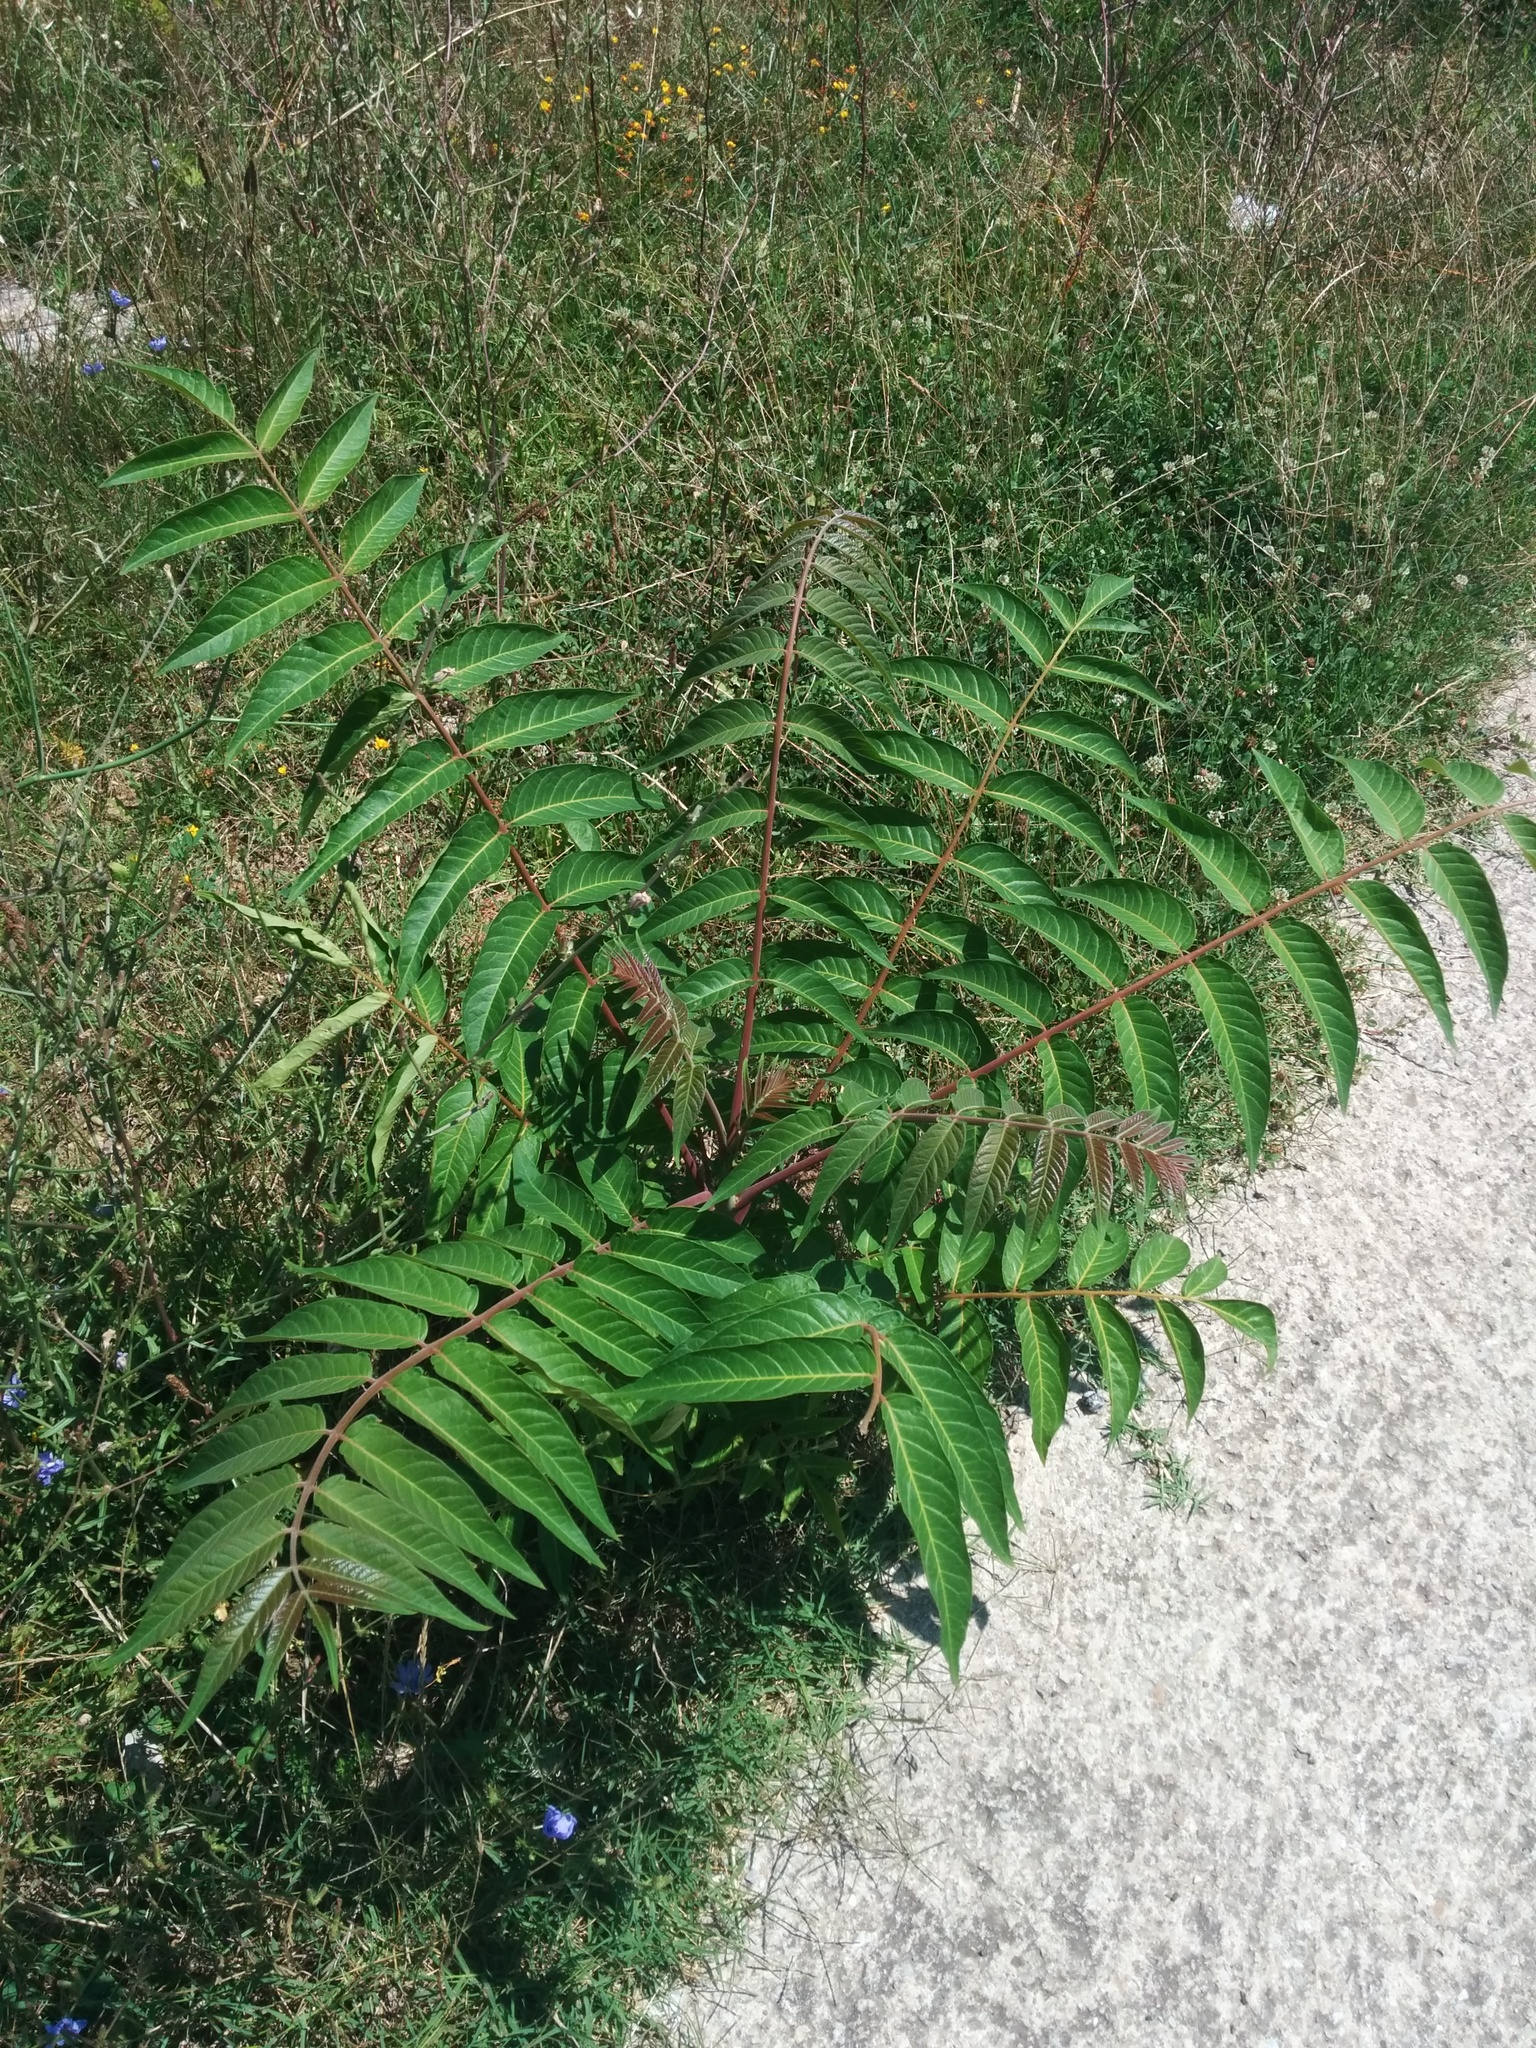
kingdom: Plantae
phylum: Tracheophyta
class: Magnoliopsida
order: Sapindales
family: Simaroubaceae
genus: Ailanthus
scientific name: Ailanthus altissima
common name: Tree-of-heaven
